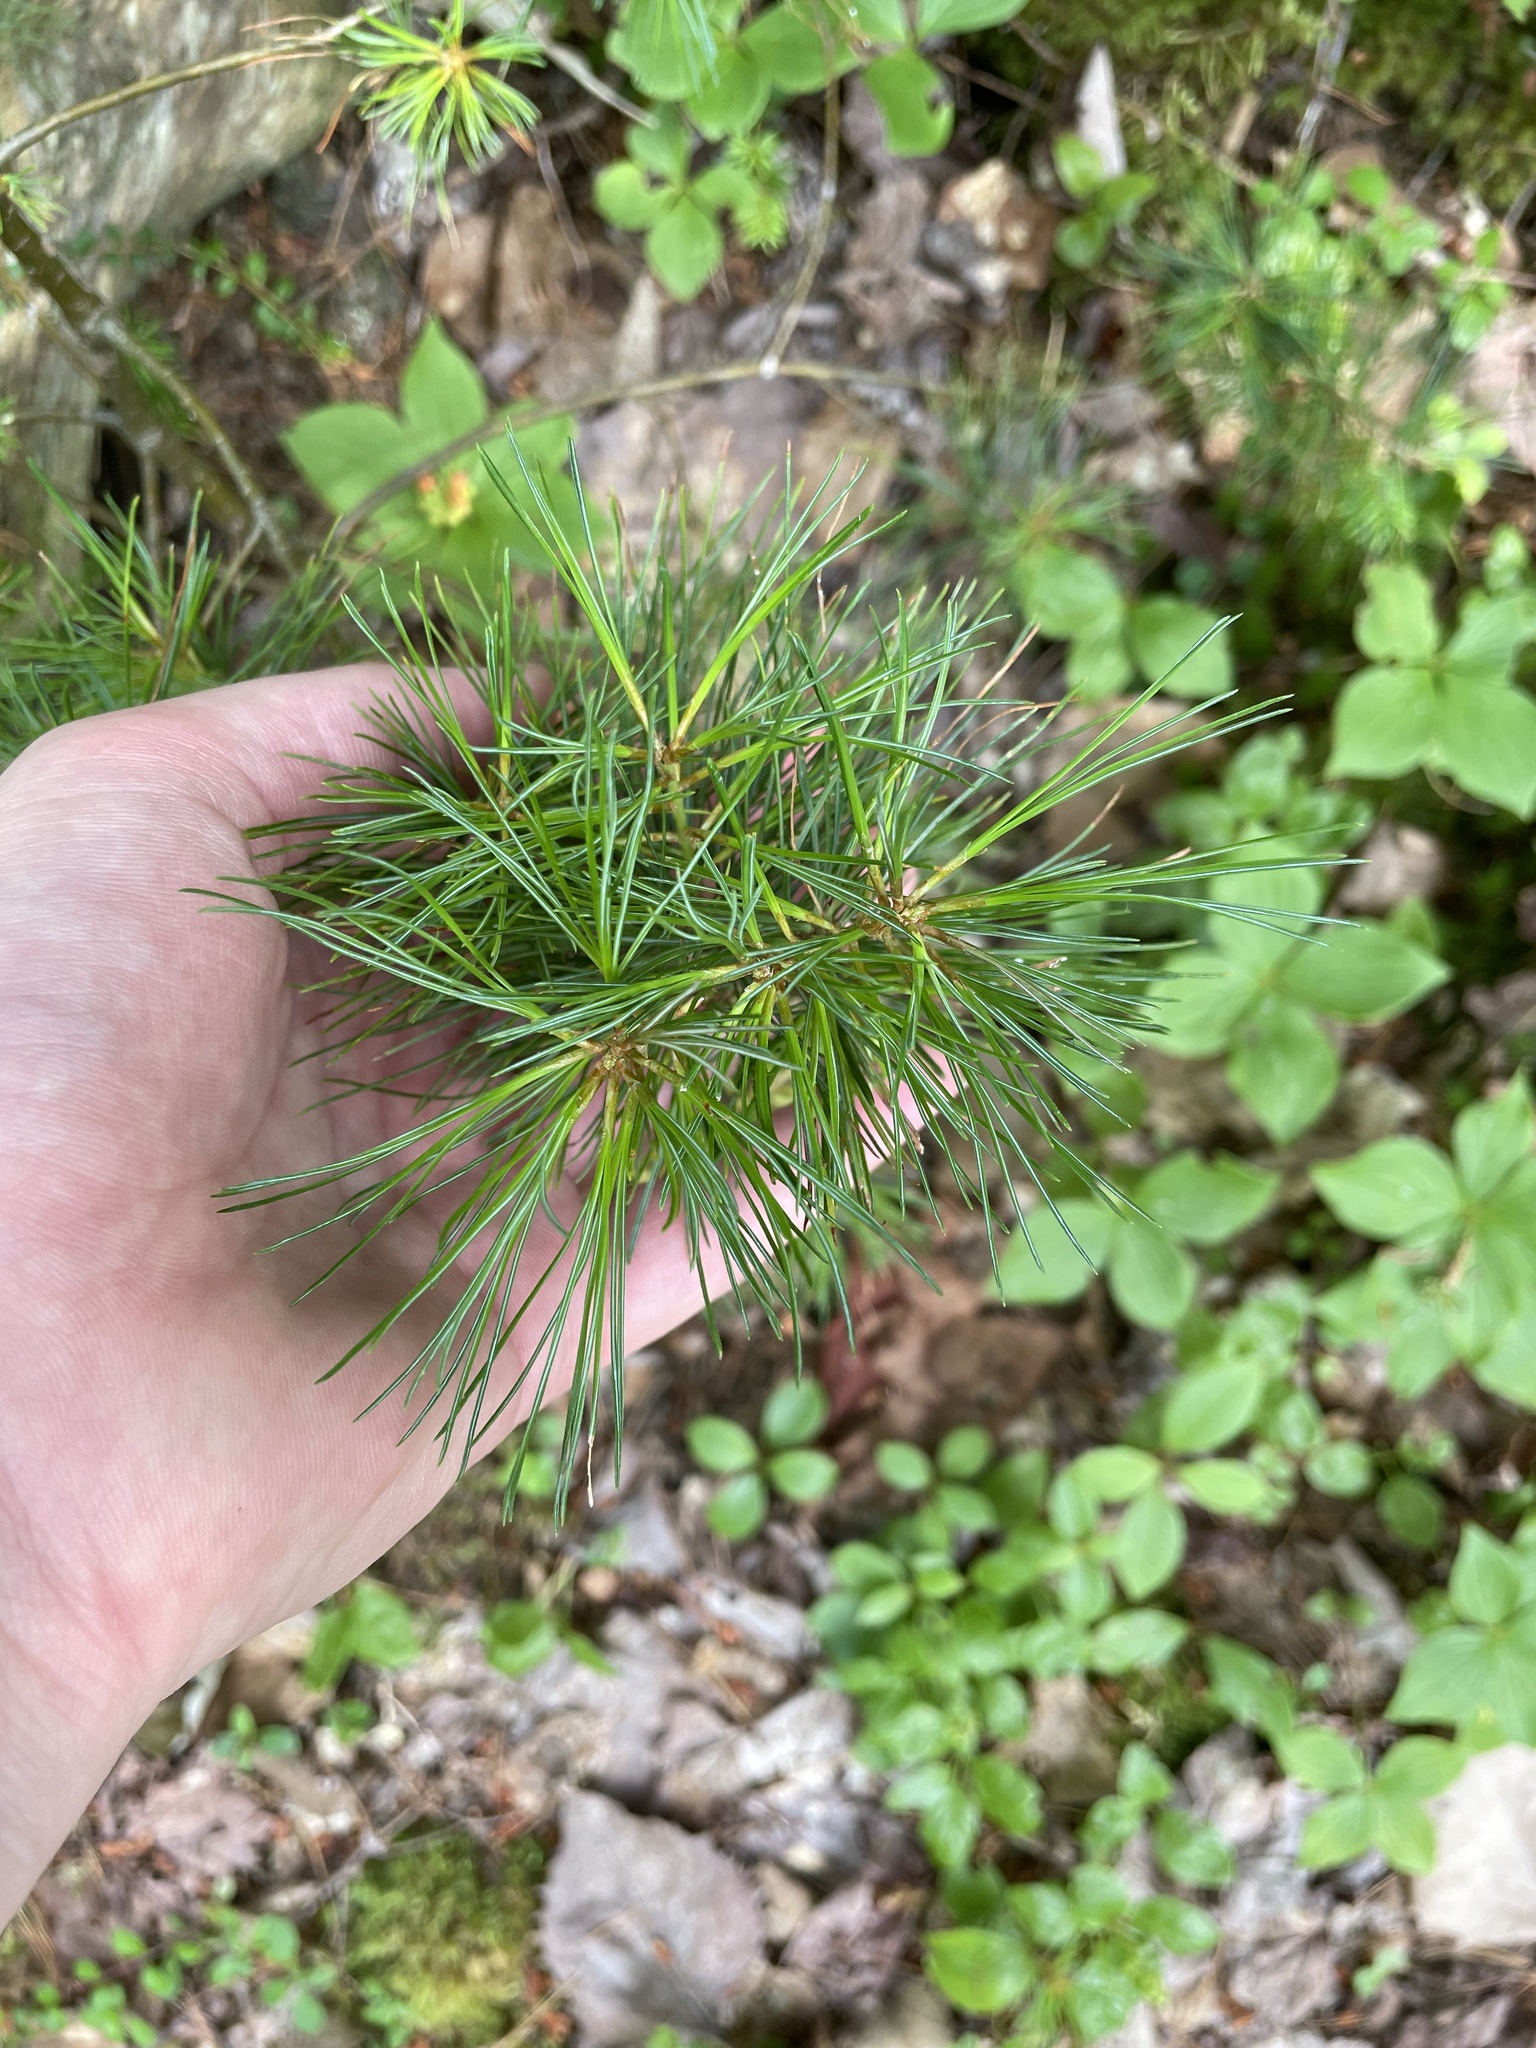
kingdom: Plantae
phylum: Tracheophyta
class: Pinopsida
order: Pinales
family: Pinaceae
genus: Pinus
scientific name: Pinus strobus
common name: Weymouth pine
